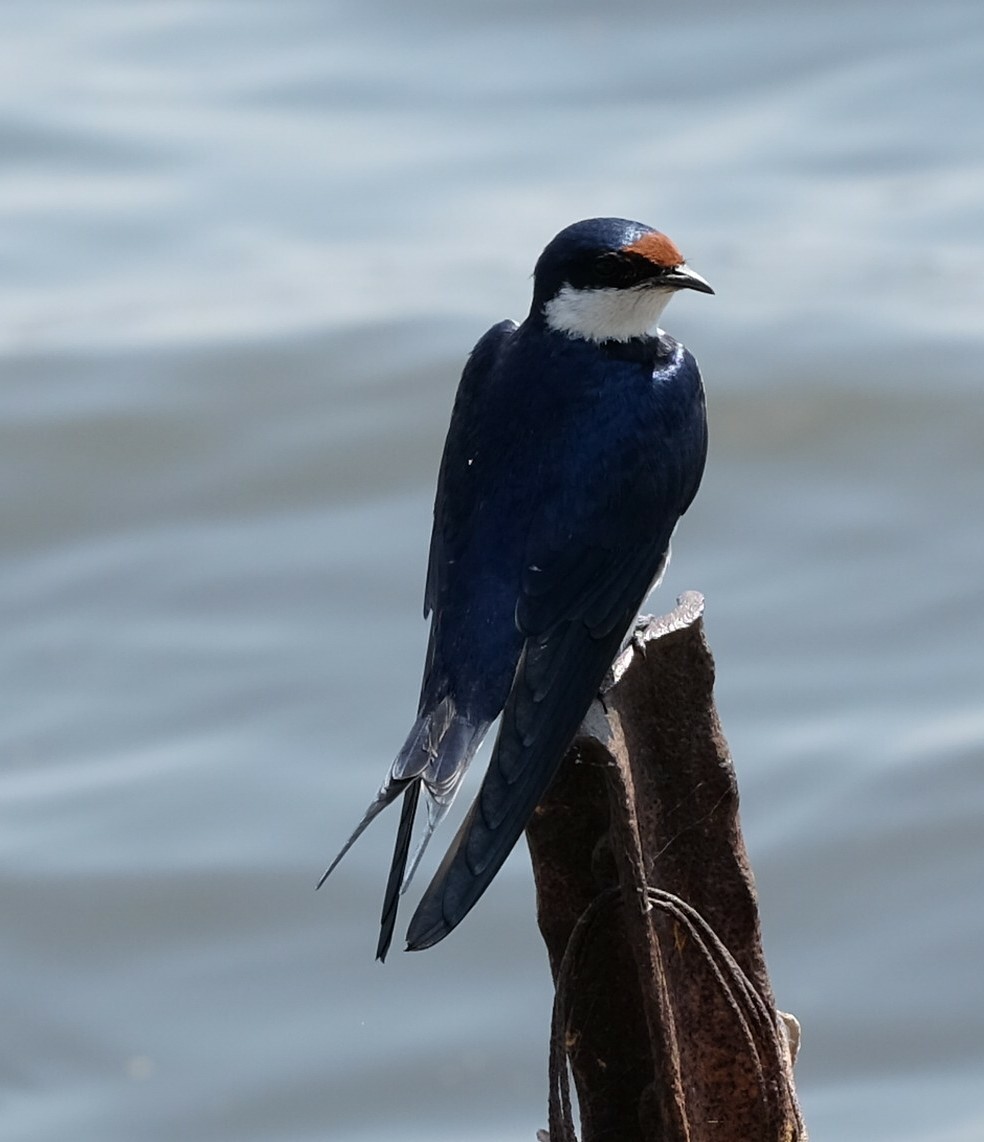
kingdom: Animalia
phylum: Chordata
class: Aves
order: Passeriformes
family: Hirundinidae
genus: Hirundo
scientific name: Hirundo albigularis
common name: White-throated swallow
